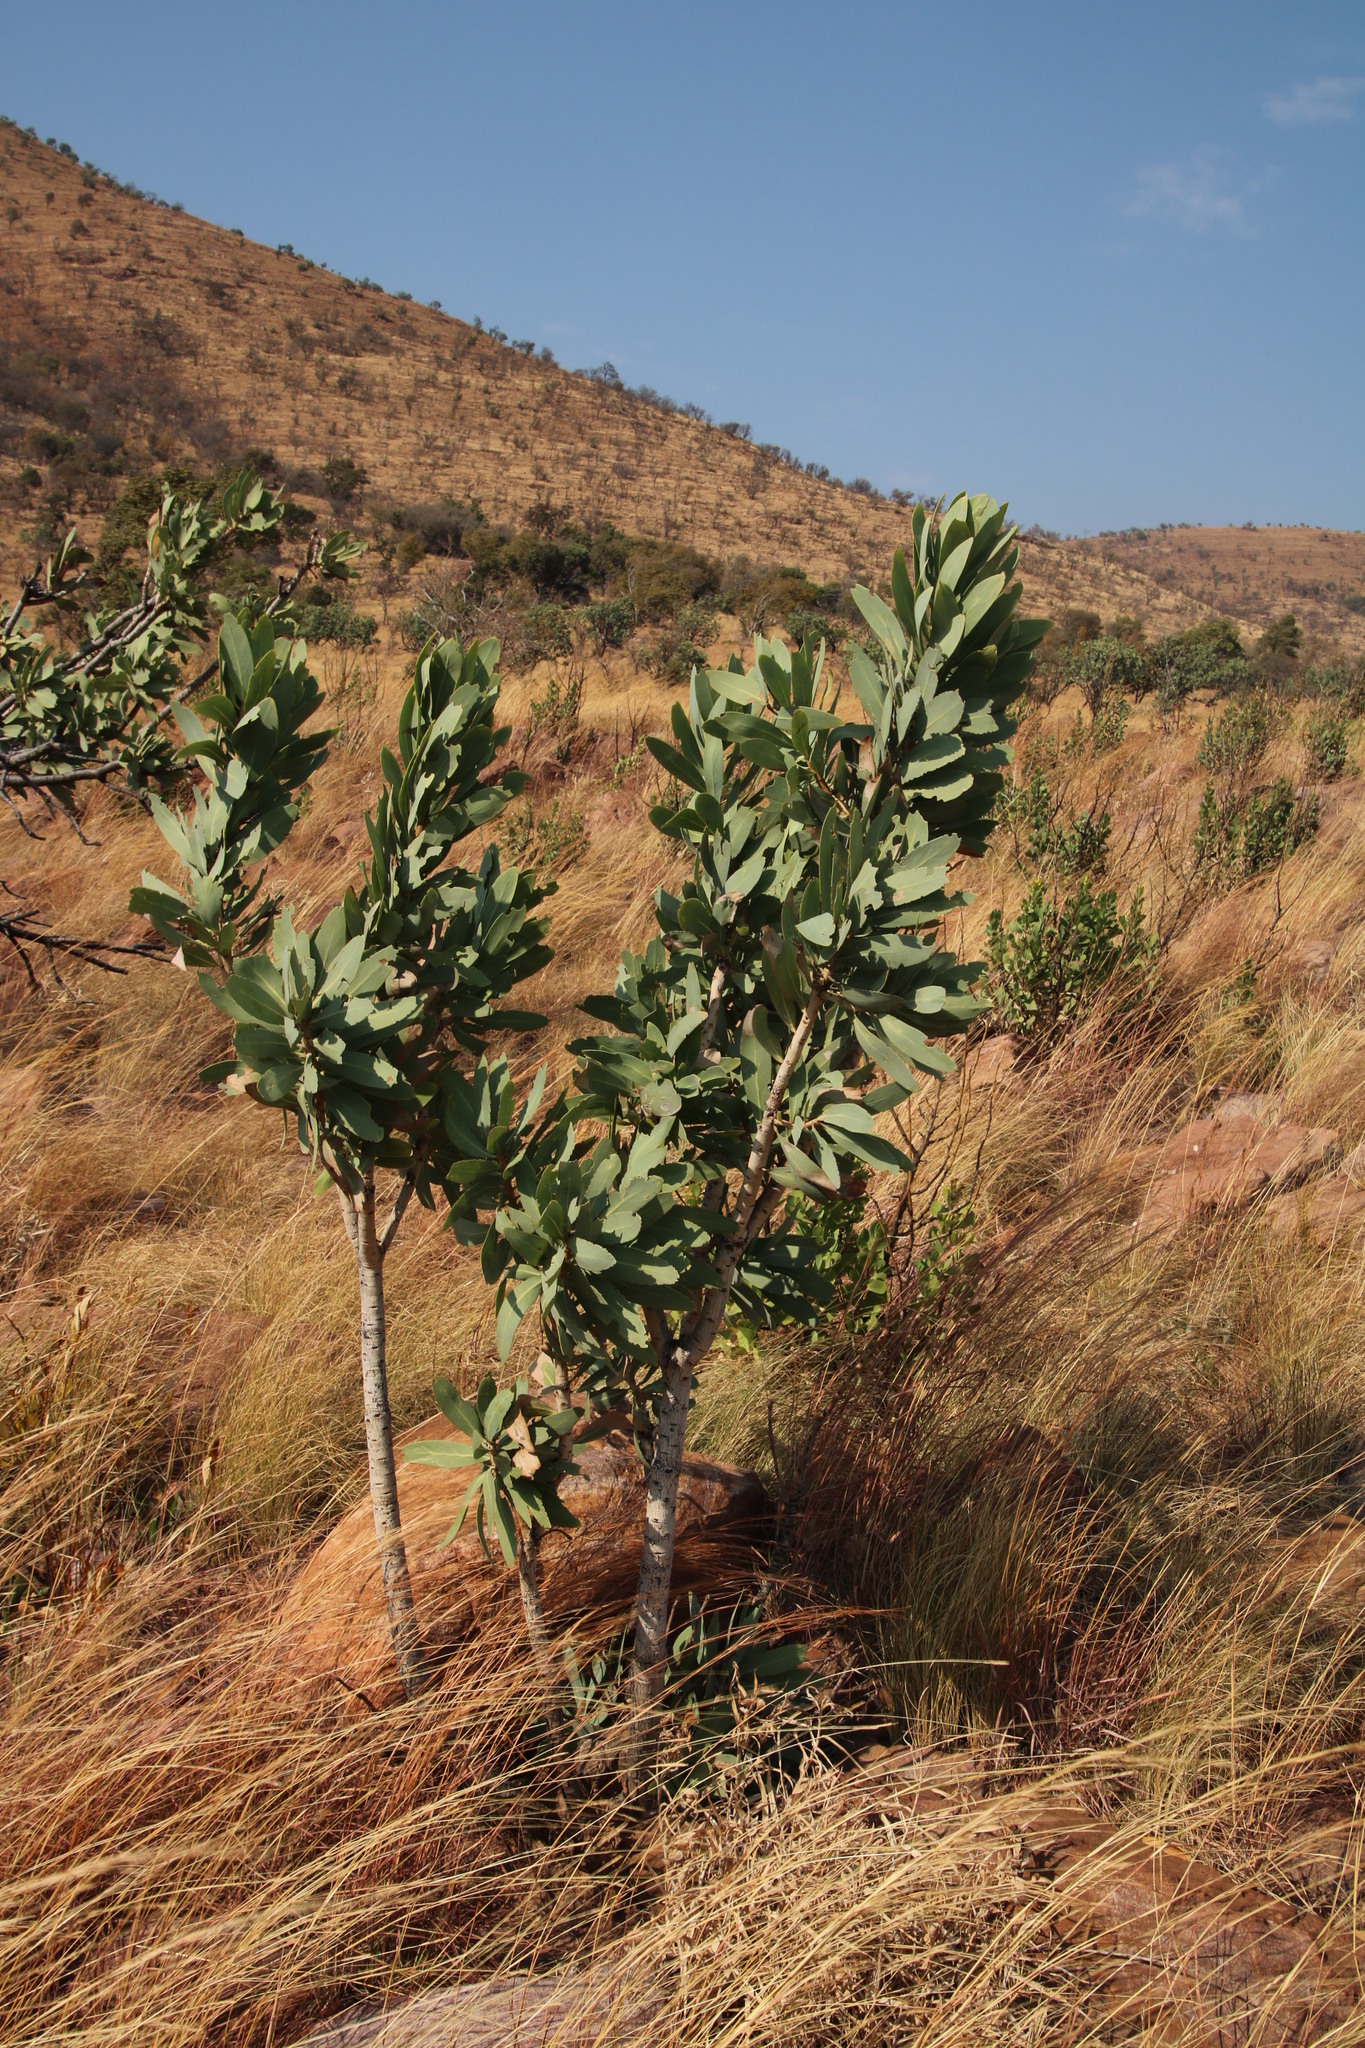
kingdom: Plantae
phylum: Tracheophyta
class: Magnoliopsida
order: Proteales
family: Proteaceae
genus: Protea
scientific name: Protea caffra
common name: Common sugarbush
